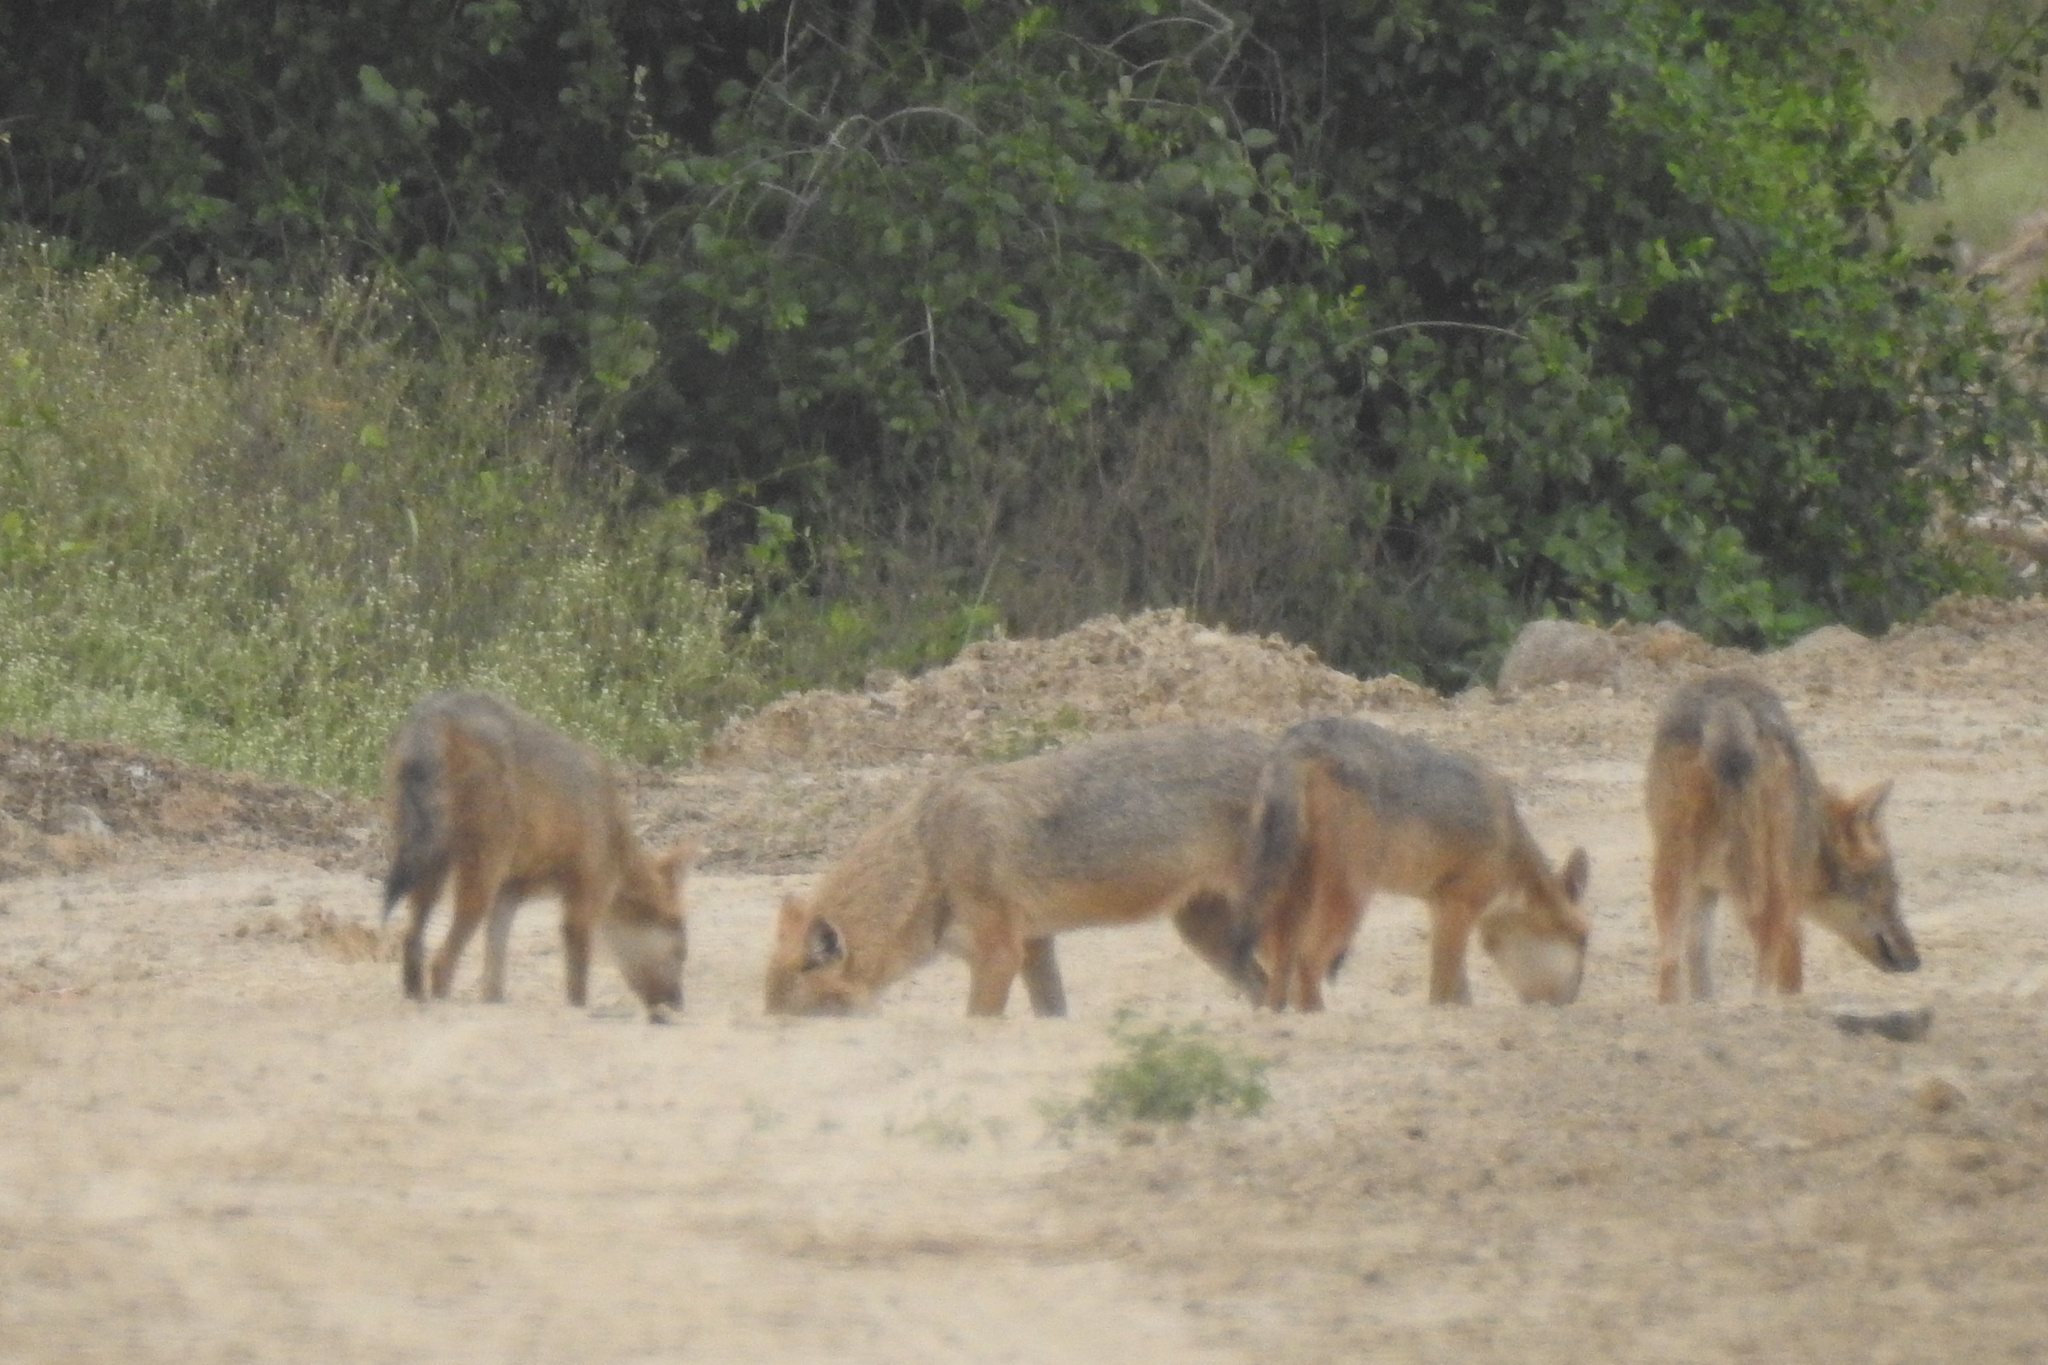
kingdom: Animalia
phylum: Chordata
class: Mammalia
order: Carnivora
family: Canidae
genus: Canis
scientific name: Canis aureus
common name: Golden jackal
